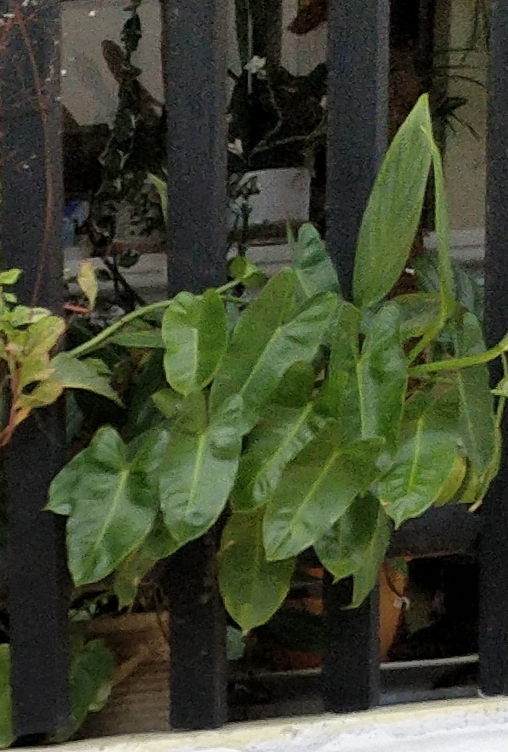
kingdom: Plantae
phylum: Tracheophyta
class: Liliopsida
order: Alismatales
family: Araceae
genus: Philodendron
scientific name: Philodendron burle-marxii
